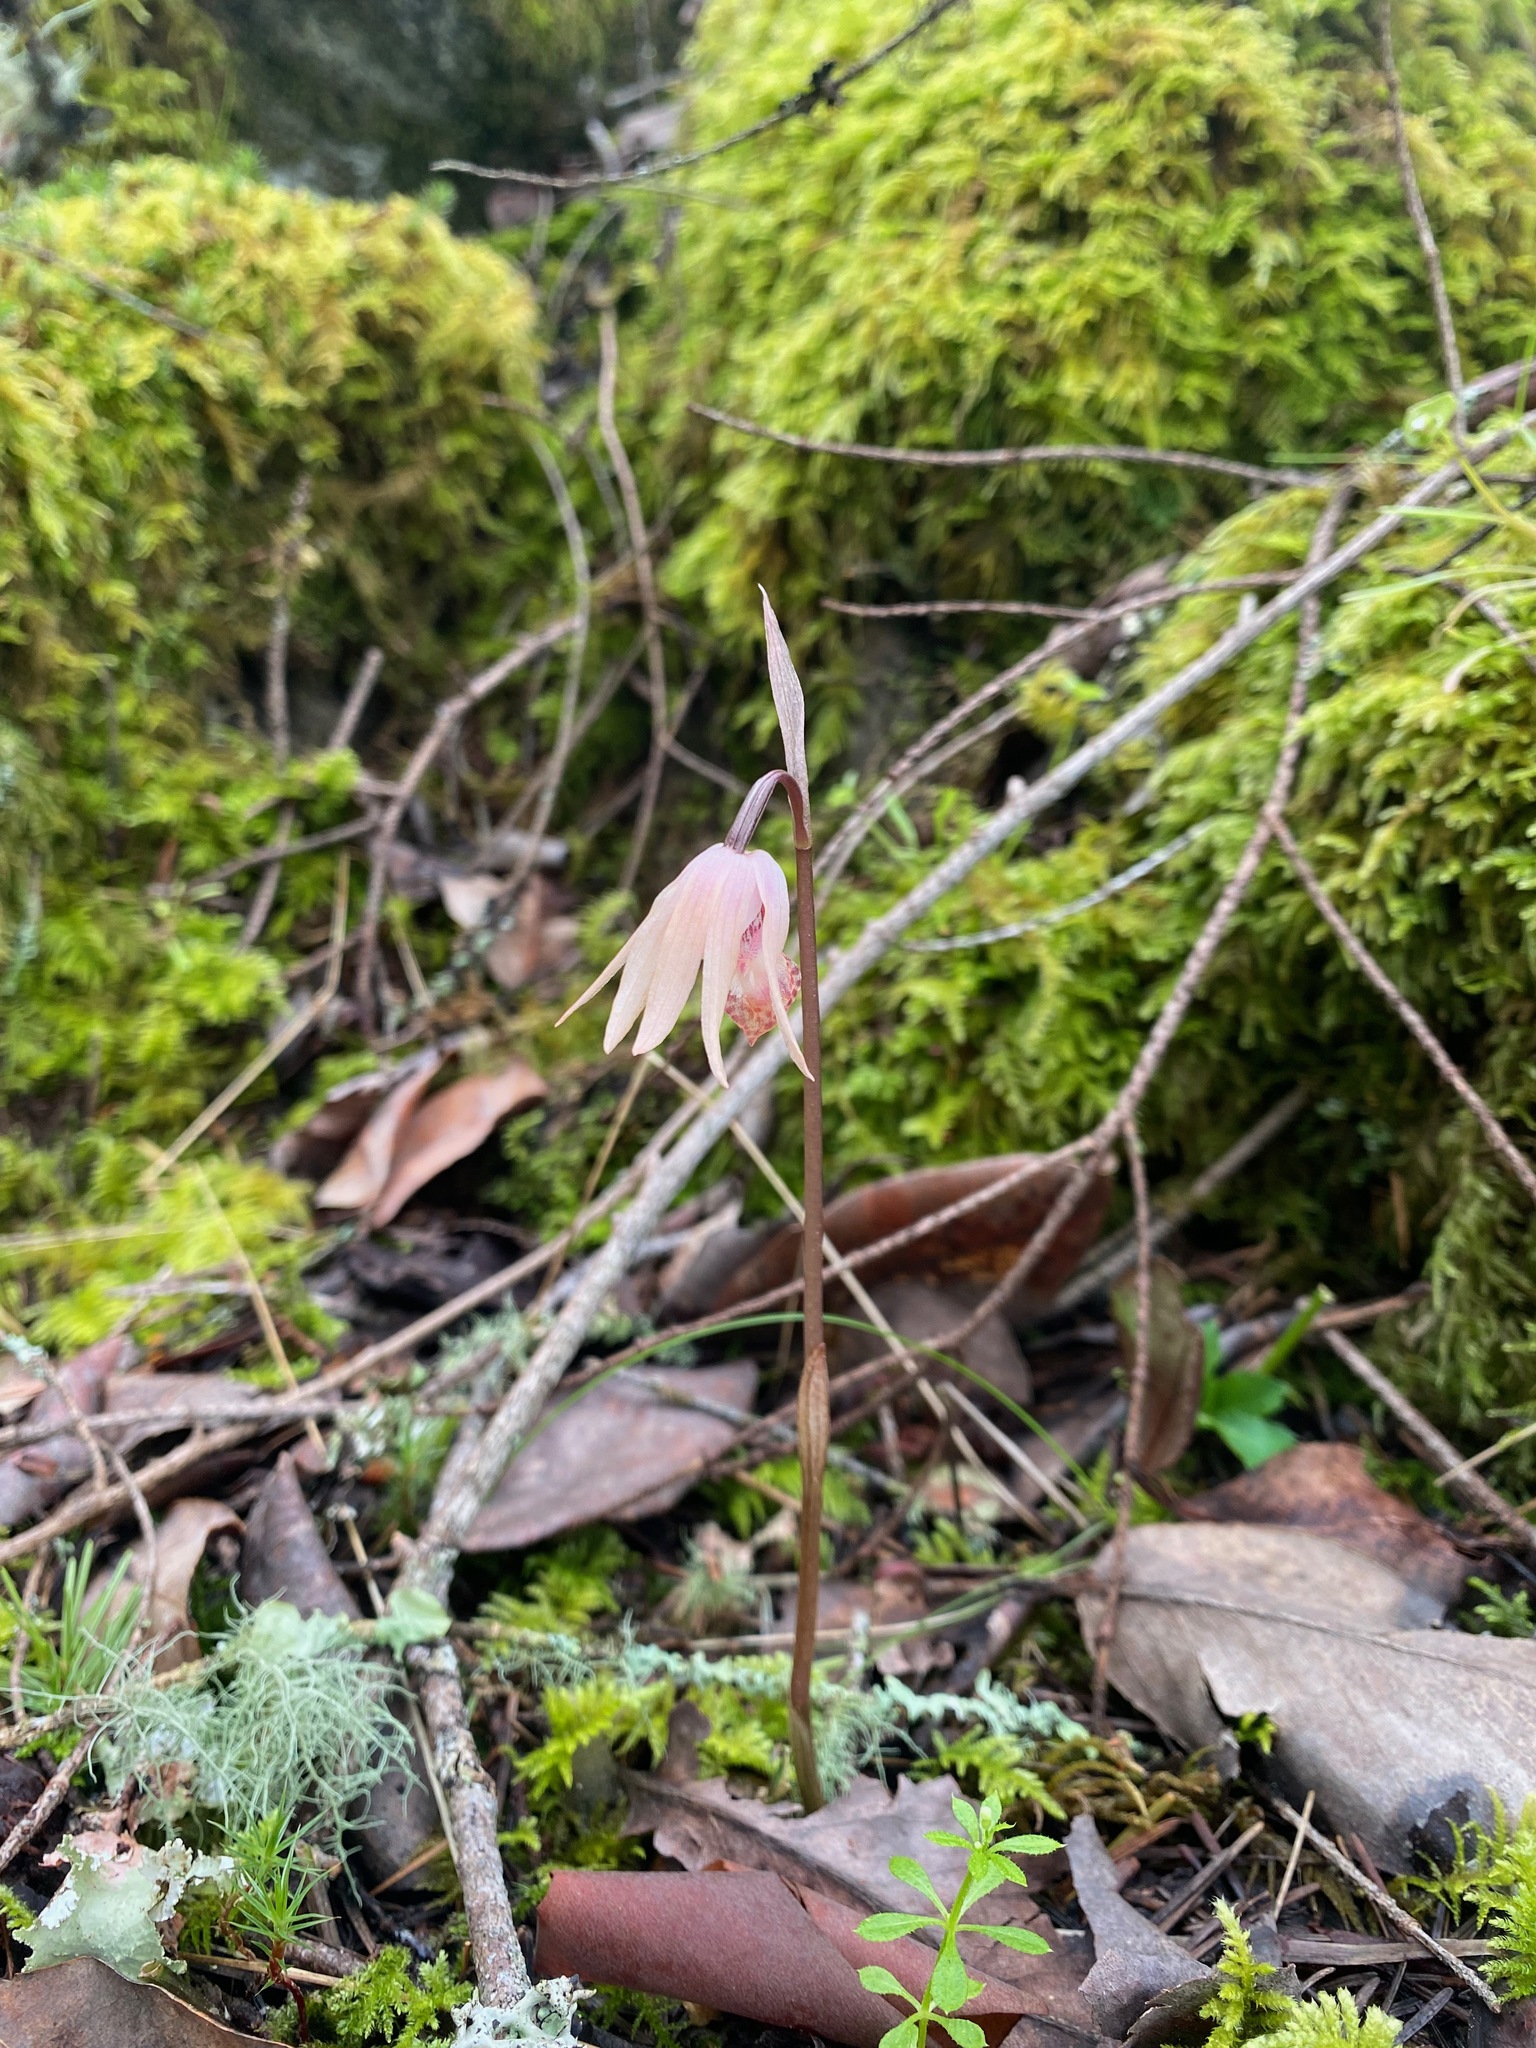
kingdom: Plantae
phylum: Tracheophyta
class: Liliopsida
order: Asparagales
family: Orchidaceae
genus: Calypso
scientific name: Calypso bulbosa
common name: Calypso
